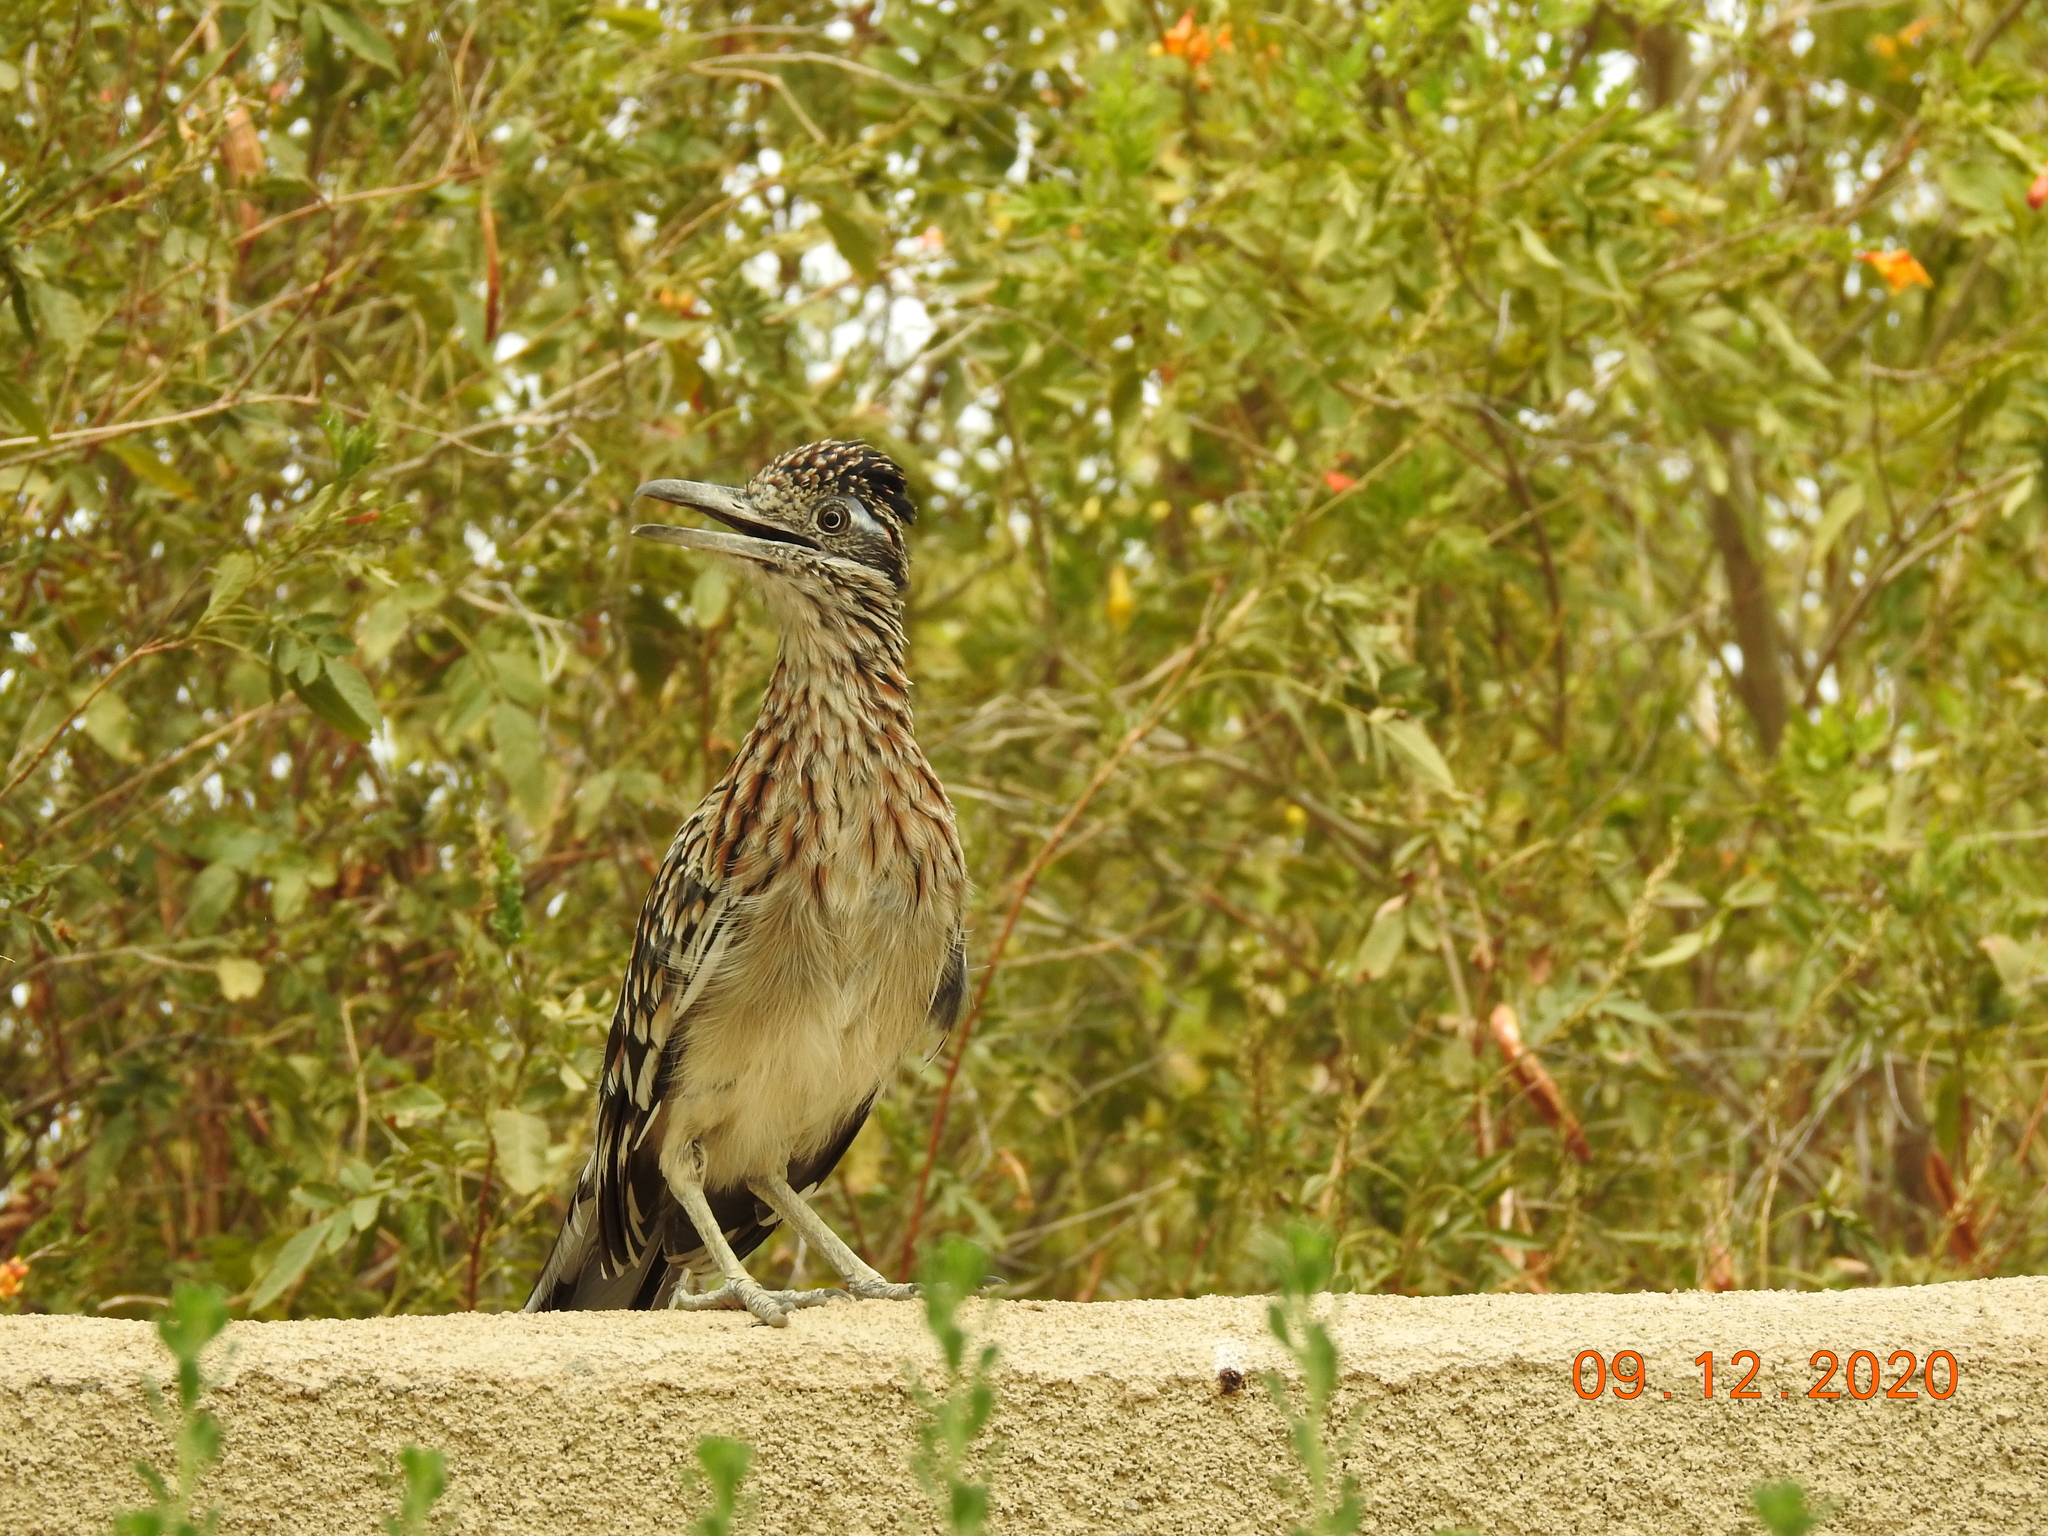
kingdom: Animalia
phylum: Chordata
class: Aves
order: Cuculiformes
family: Cuculidae
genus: Geococcyx
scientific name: Geococcyx californianus
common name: Greater roadrunner
